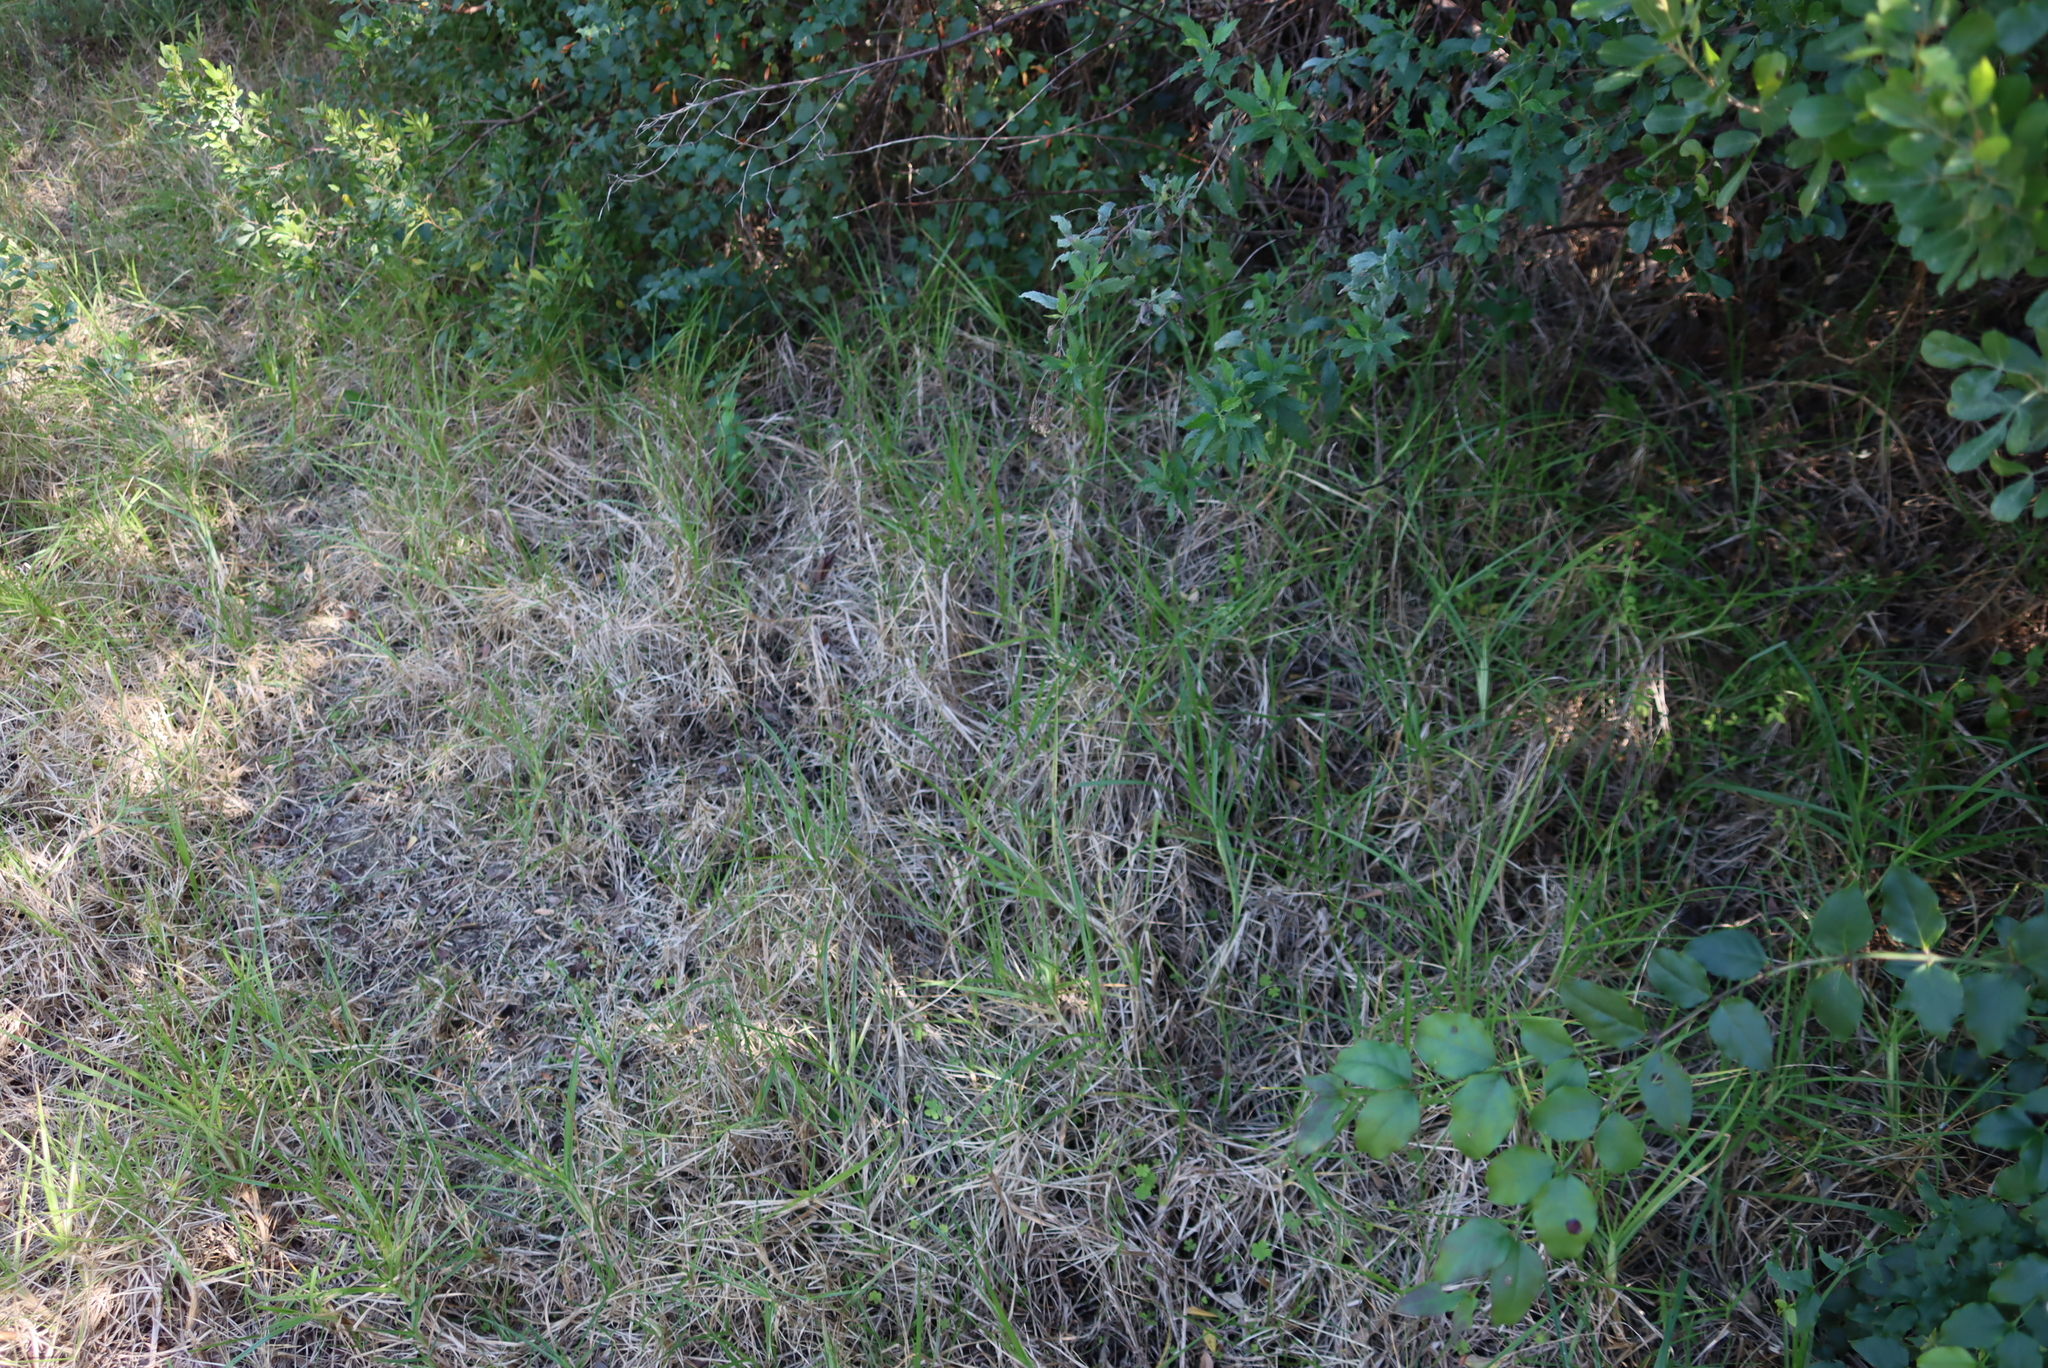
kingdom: Plantae
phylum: Tracheophyta
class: Liliopsida
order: Poales
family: Poaceae
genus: Cenchrus
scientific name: Cenchrus clandestinus
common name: Kikuyugrass
